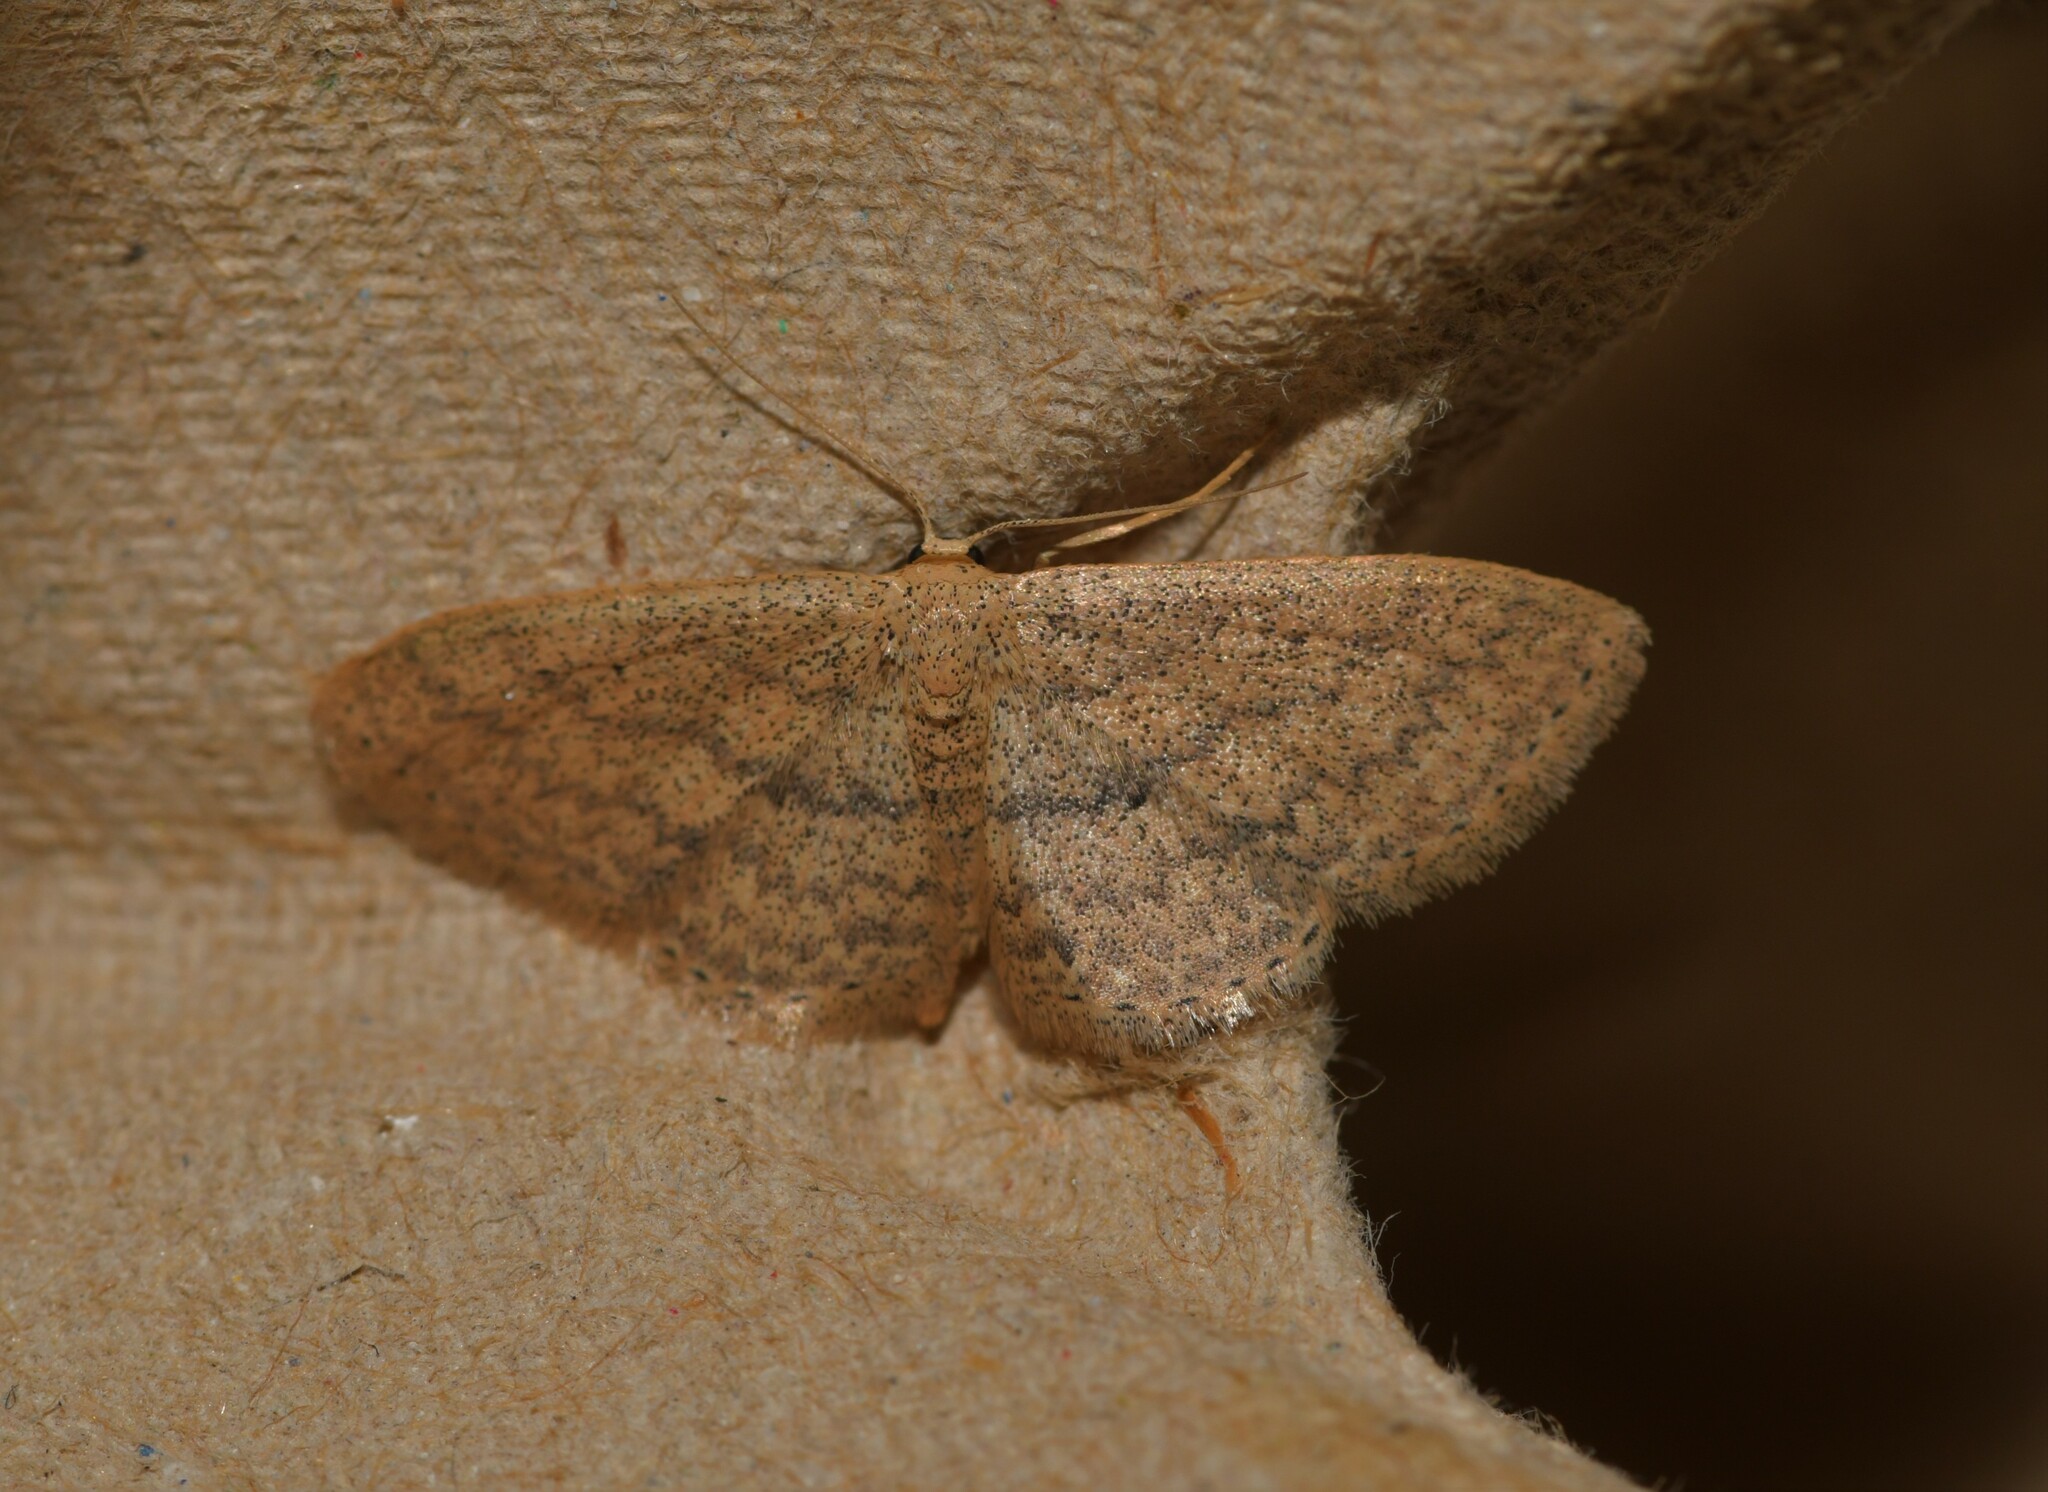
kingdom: Animalia
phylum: Arthropoda
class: Insecta
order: Lepidoptera
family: Geometridae
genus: Scopula
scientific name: Scopula minorata
